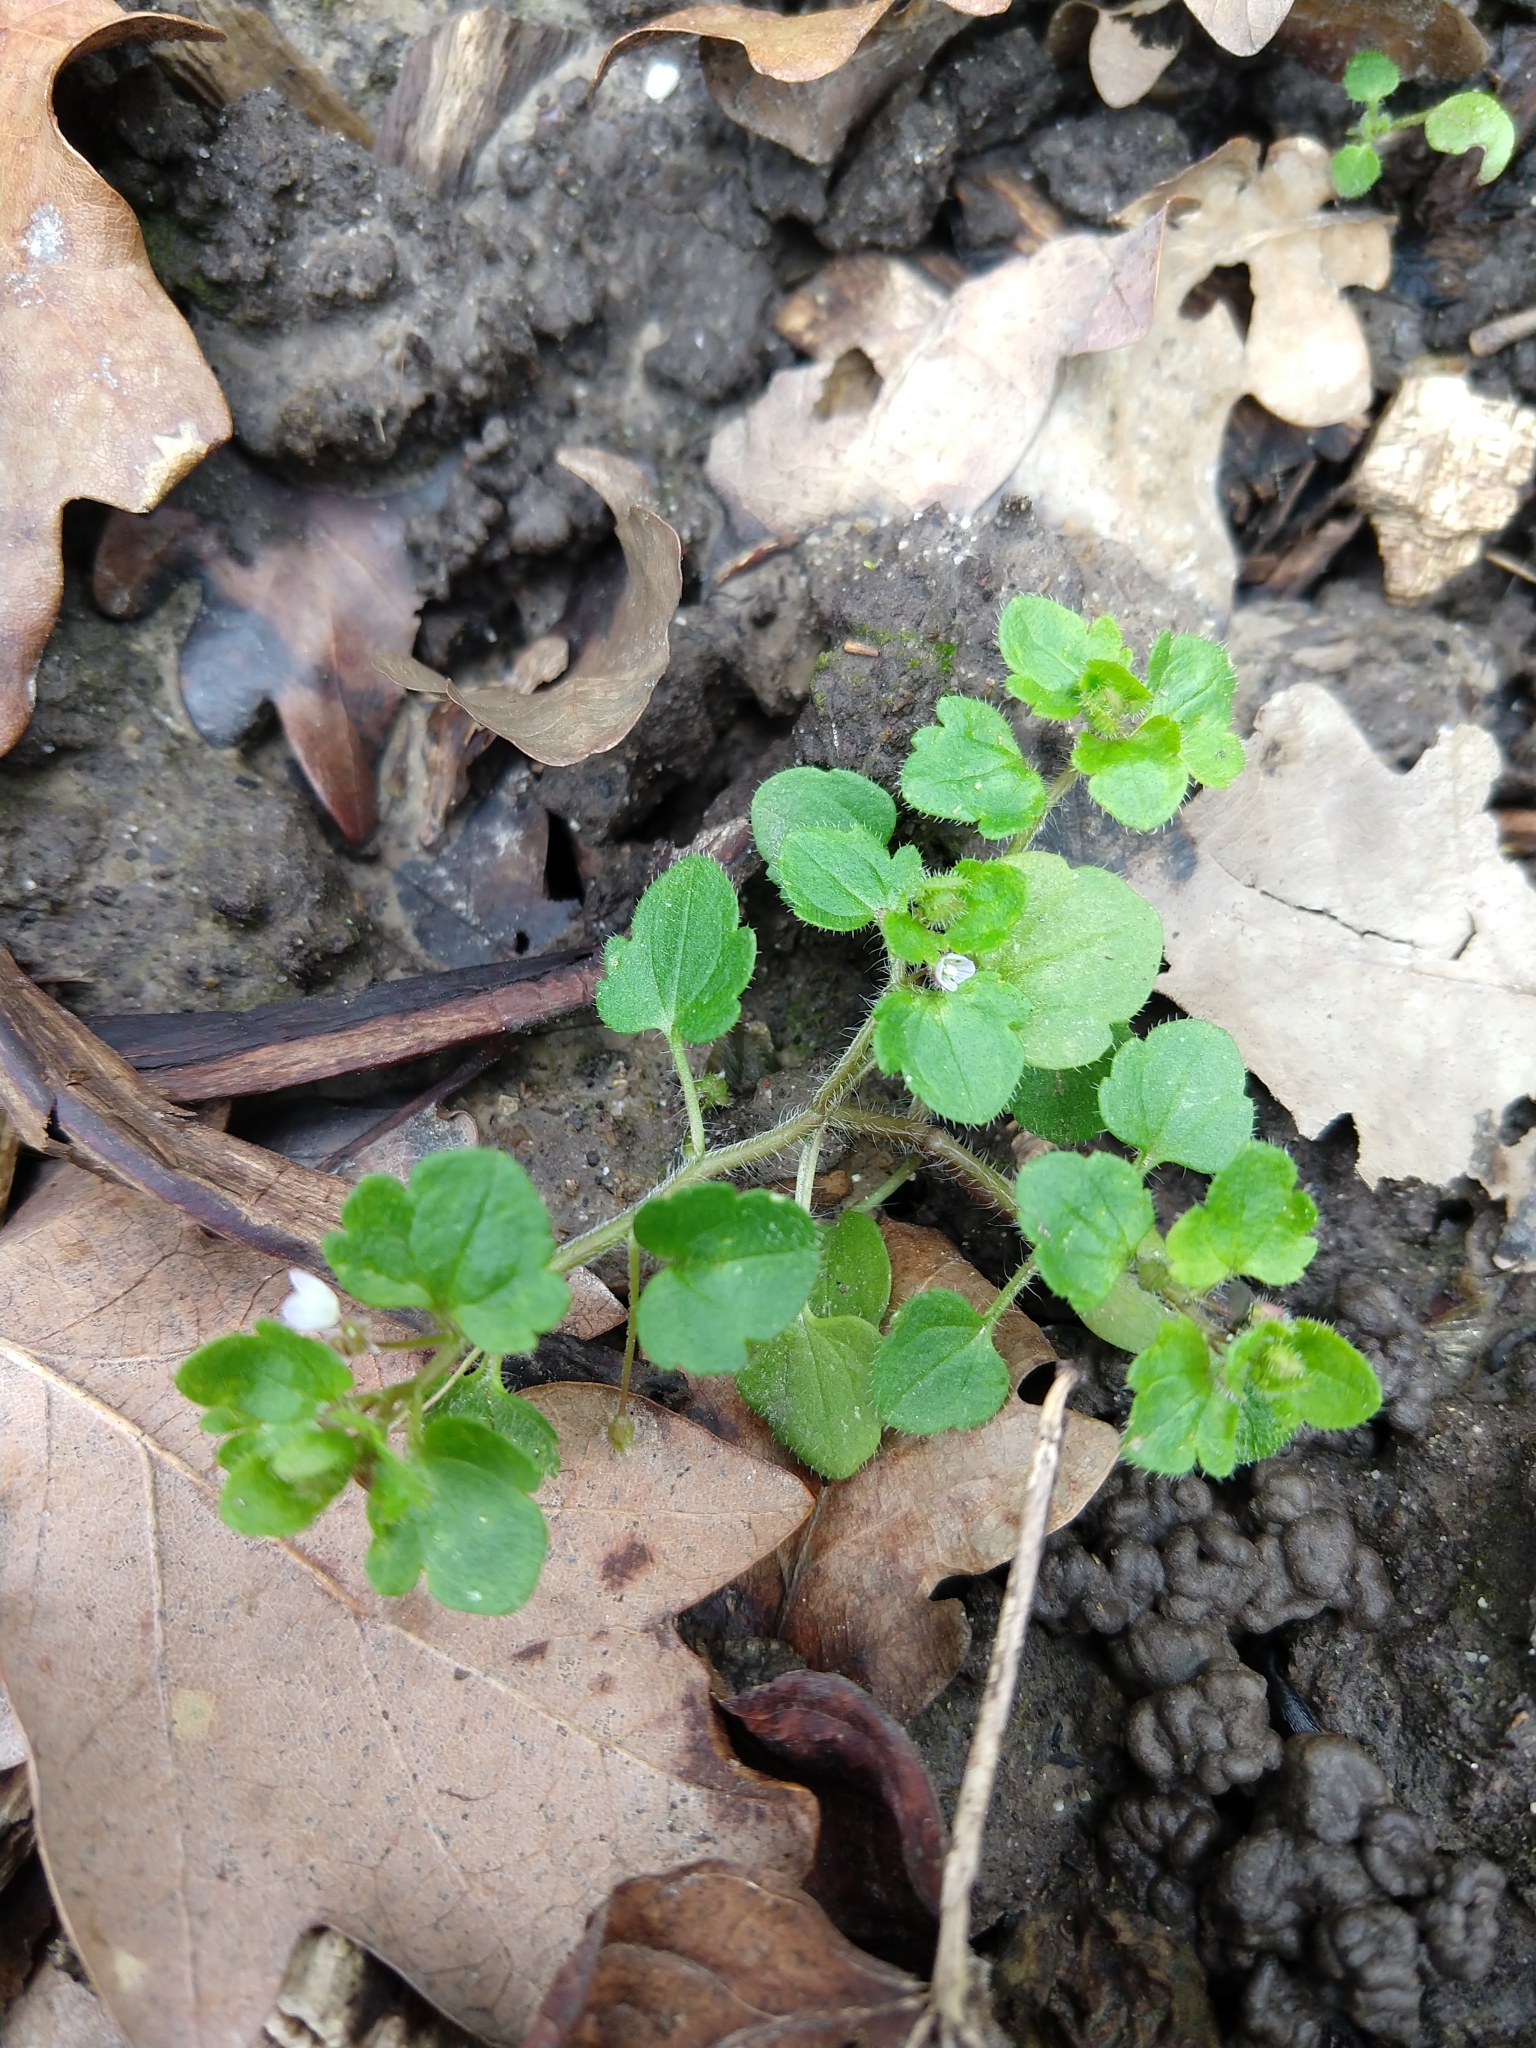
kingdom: Plantae
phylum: Tracheophyta
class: Magnoliopsida
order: Lamiales
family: Plantaginaceae
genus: Veronica
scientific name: Veronica hederifolia
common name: Ivy-leaved speedwell
